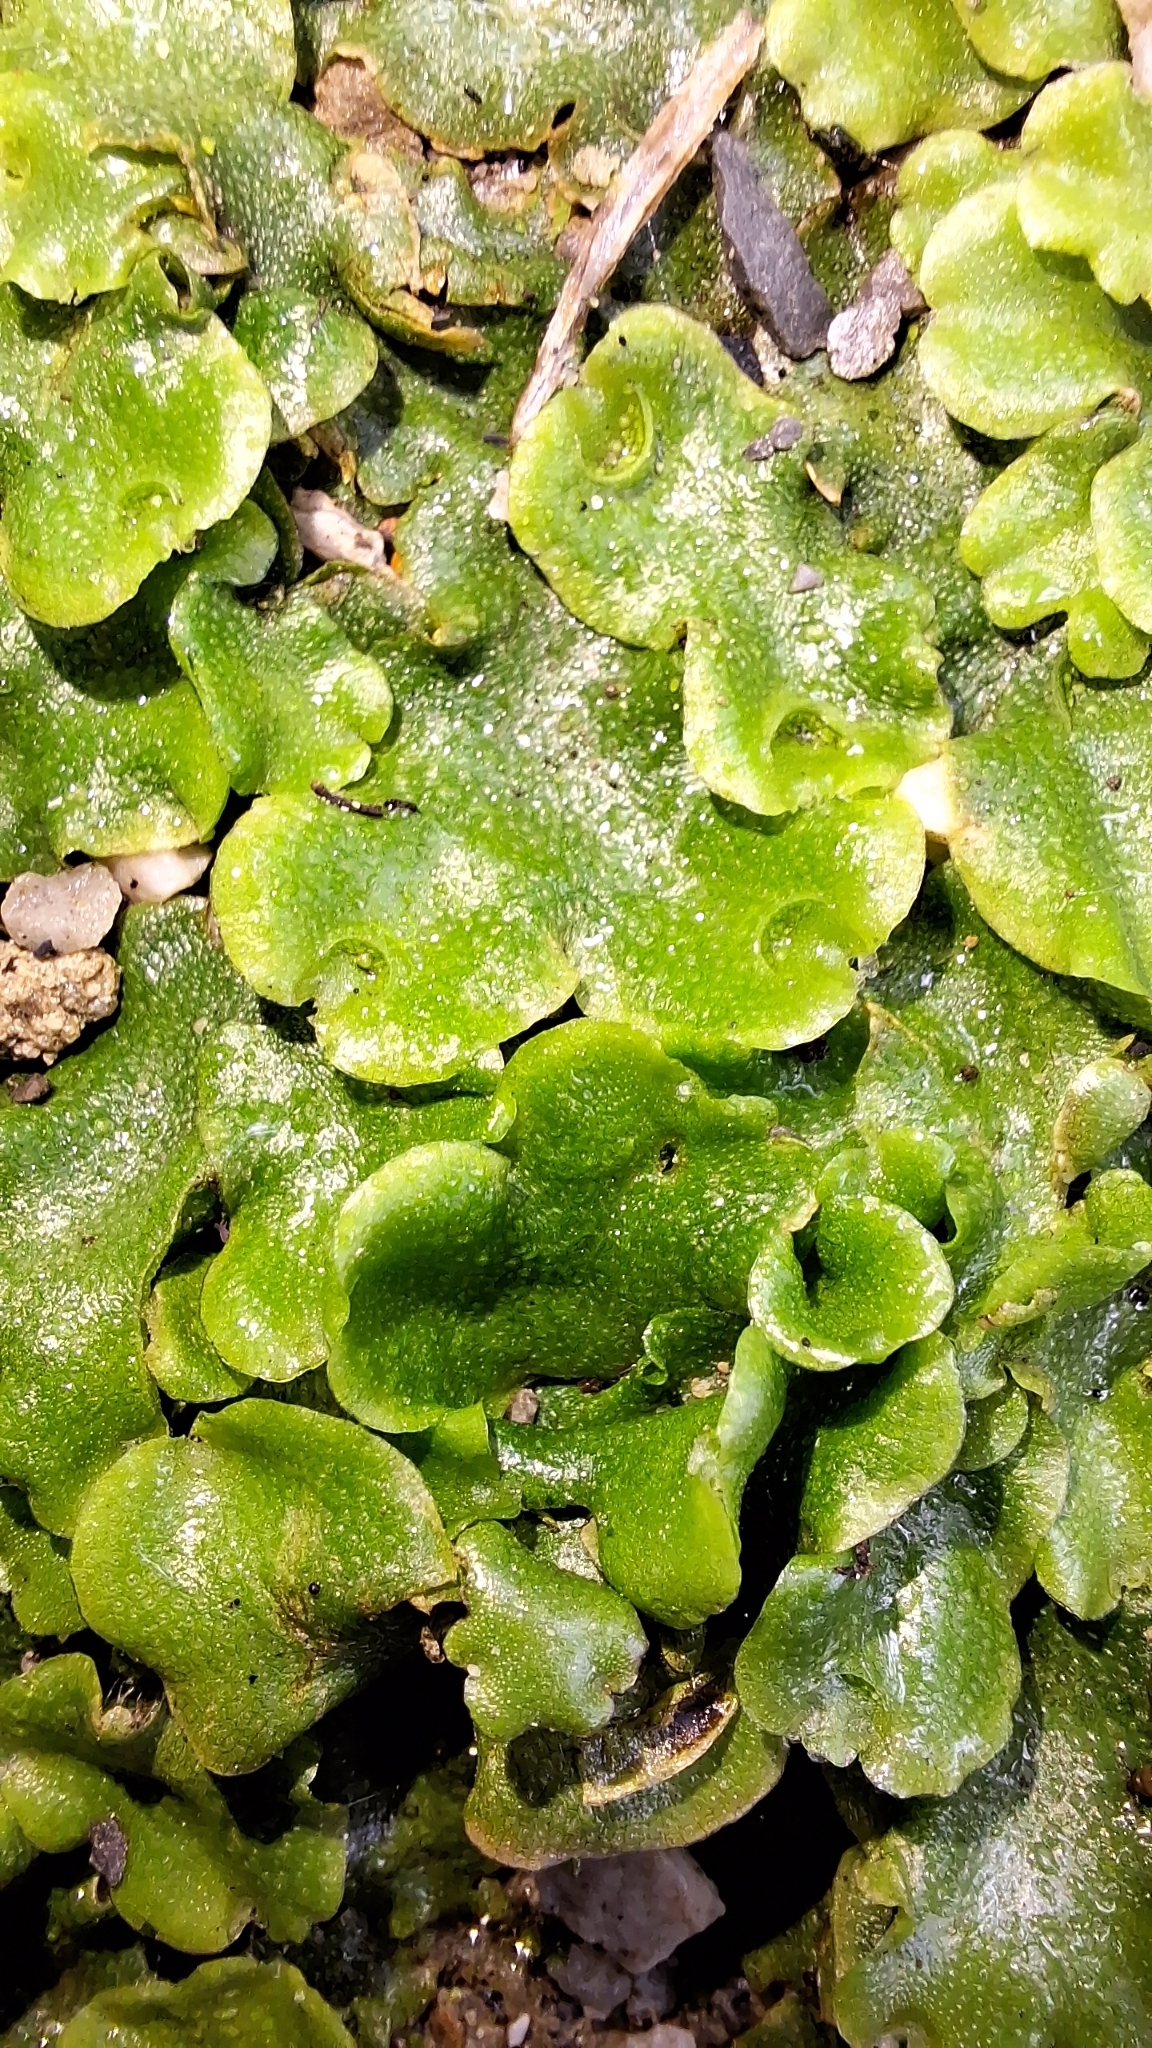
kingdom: Plantae
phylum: Marchantiophyta
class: Marchantiopsida
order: Lunulariales
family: Lunulariaceae
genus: Lunularia
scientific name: Lunularia cruciata
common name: Crescent-cup liverwort
